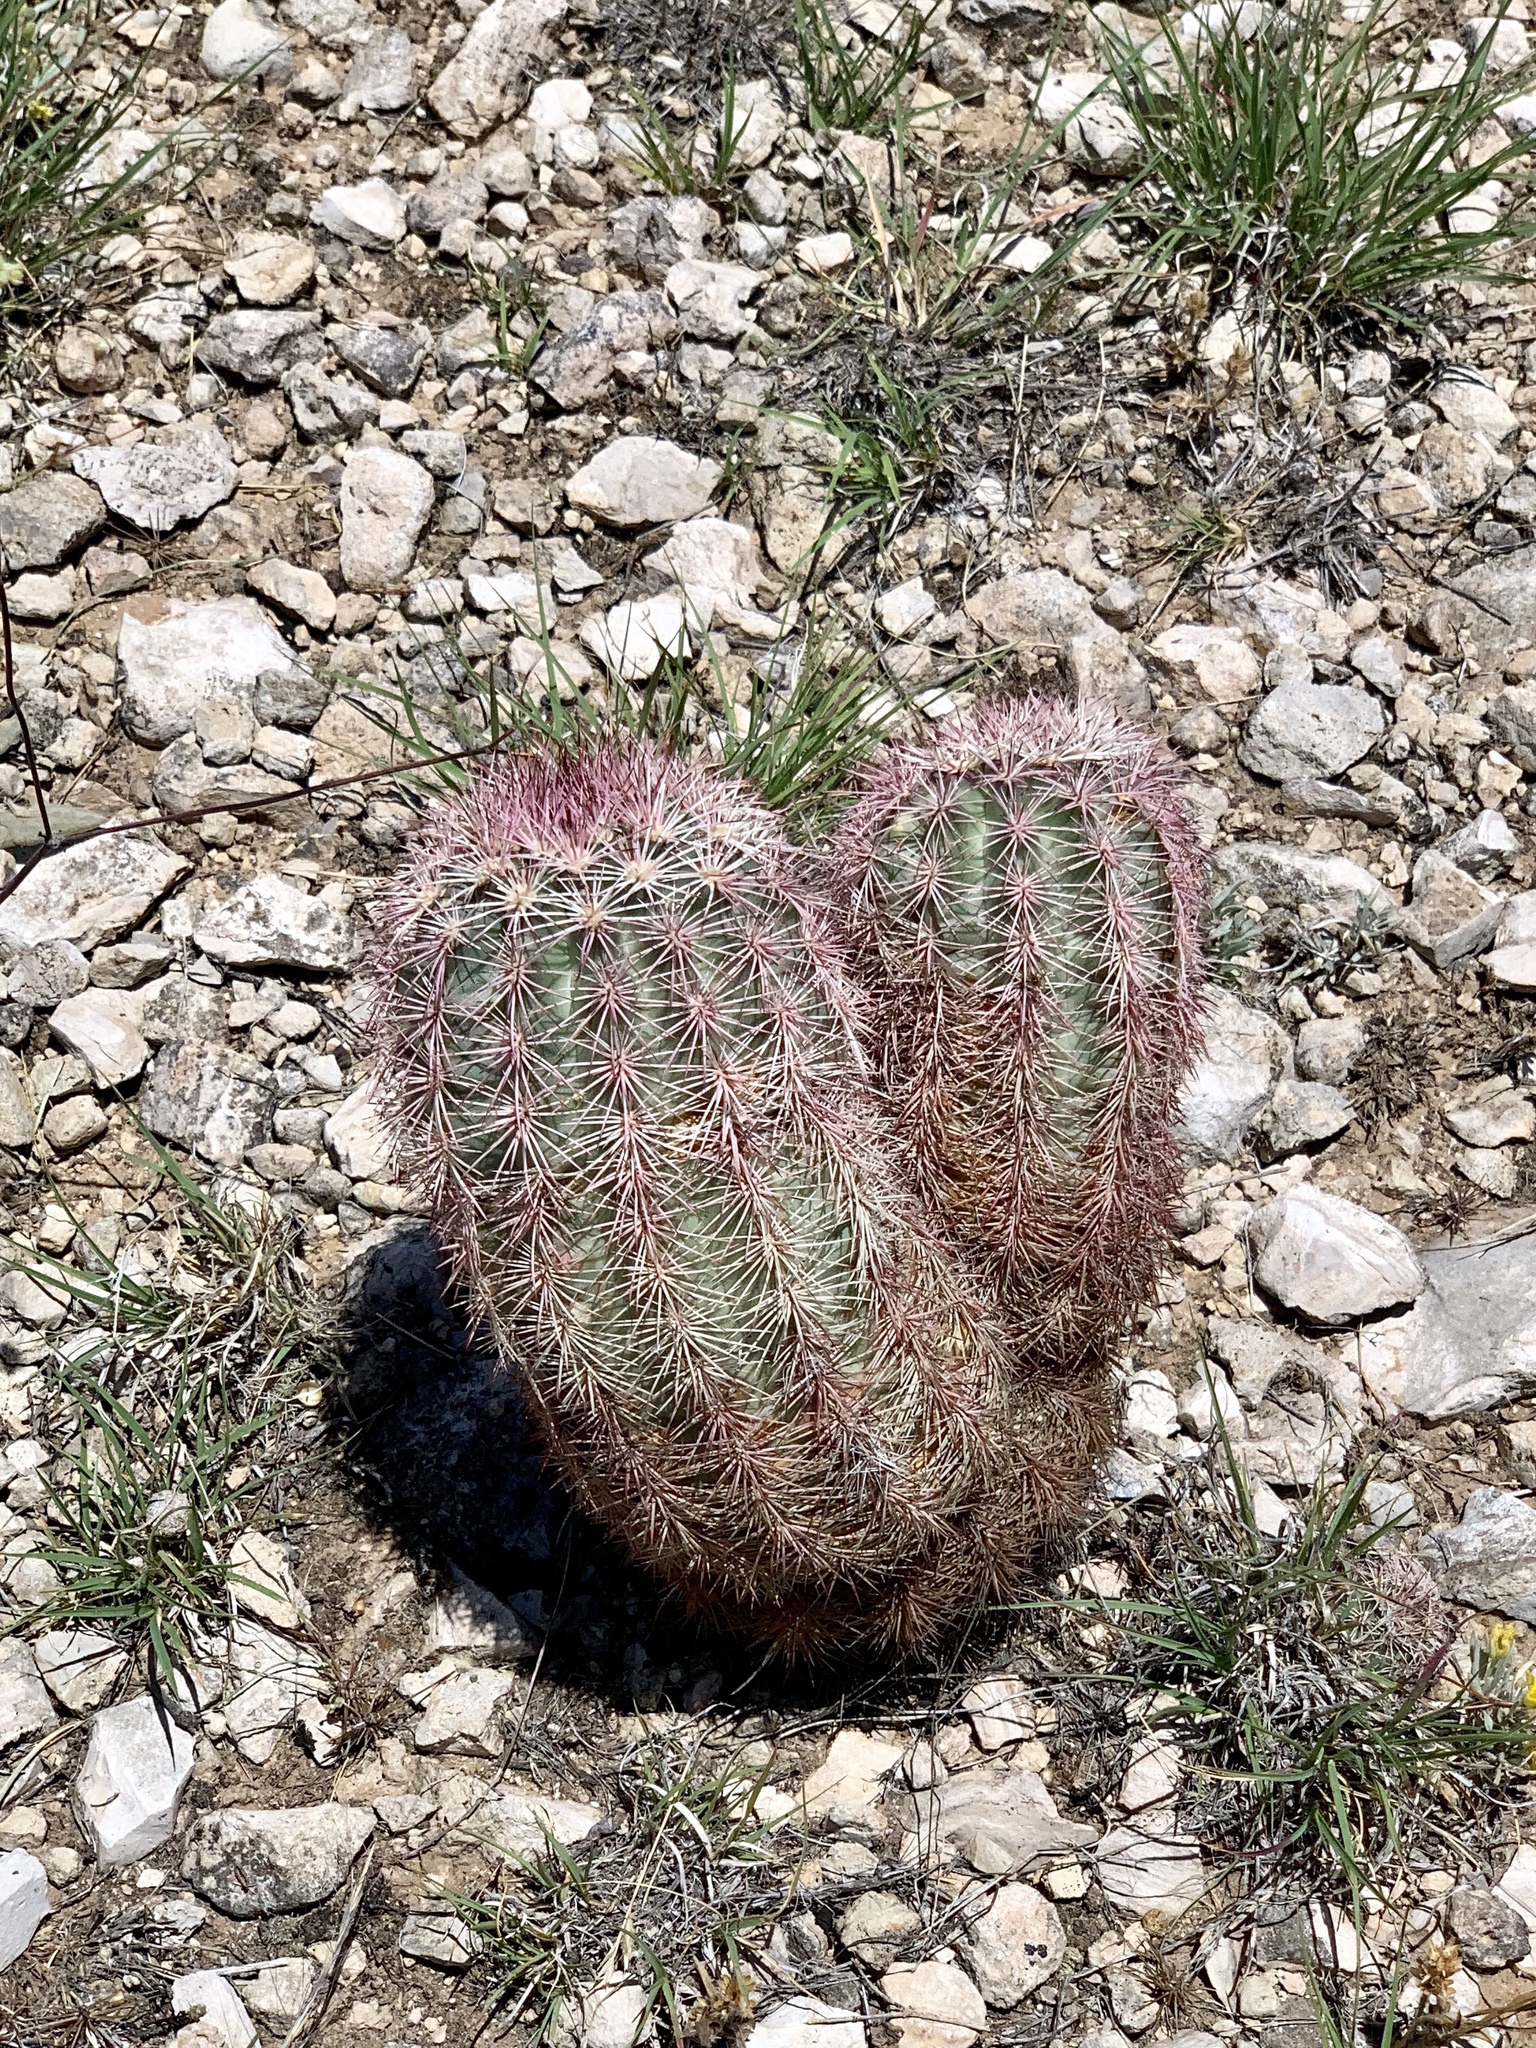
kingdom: Plantae
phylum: Tracheophyta
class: Magnoliopsida
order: Caryophyllales
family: Cactaceae
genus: Echinocereus
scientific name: Echinocereus dasyacanthus
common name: Spiny hedgehog cactus
